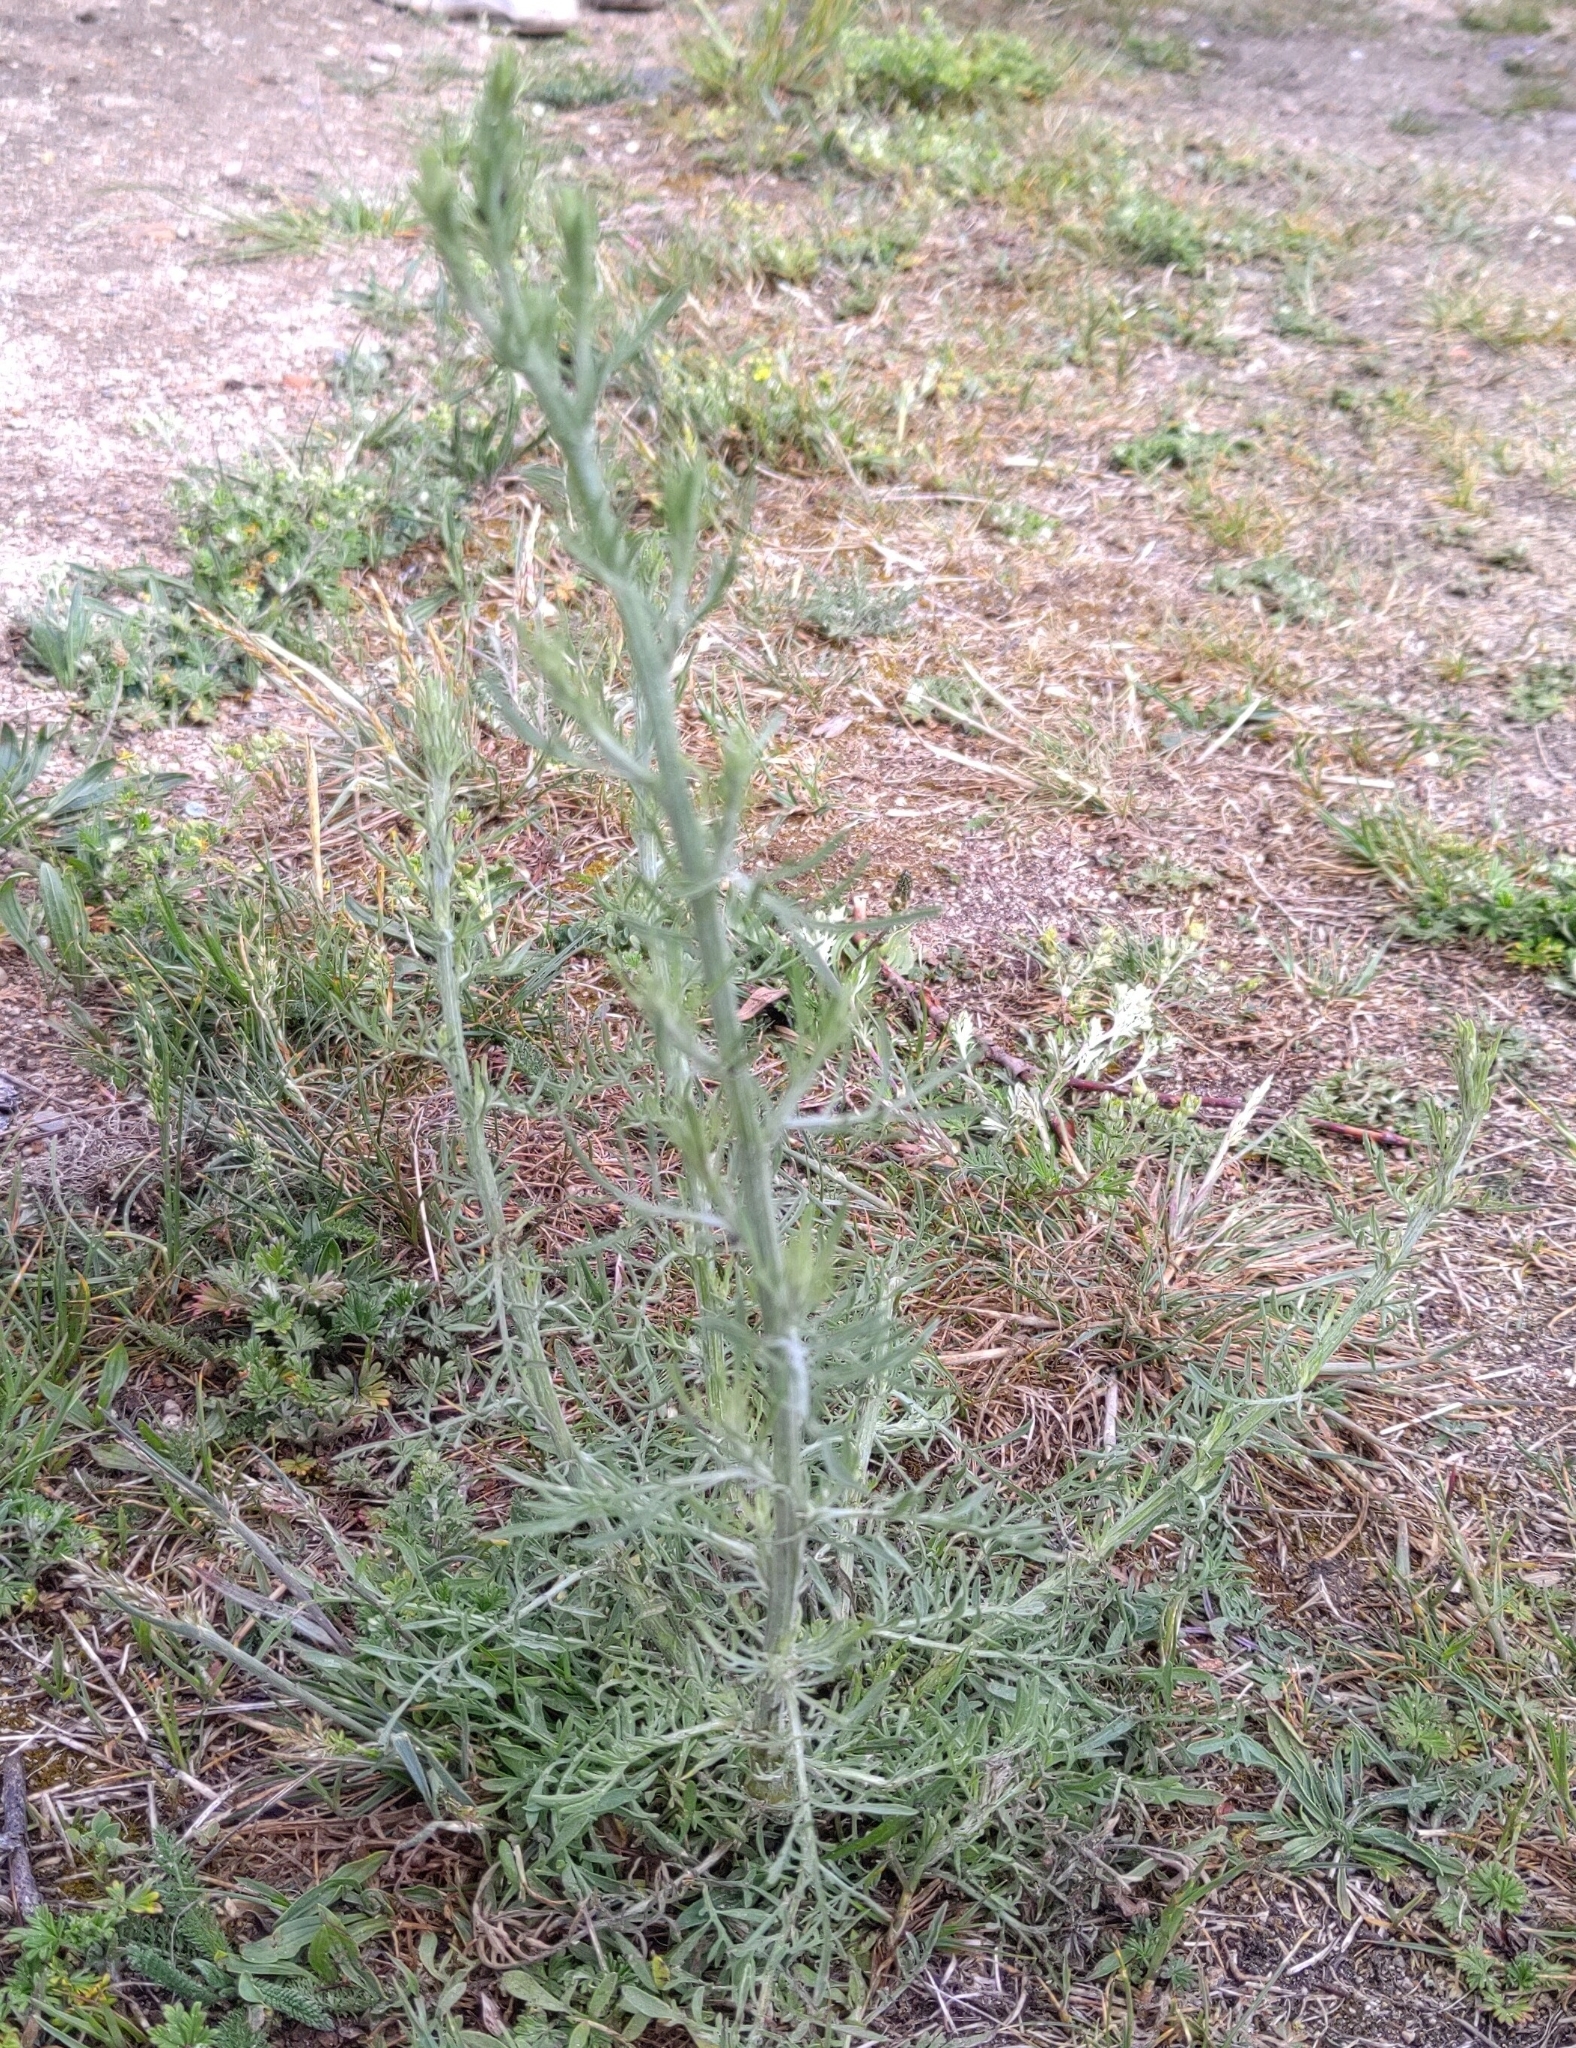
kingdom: Plantae
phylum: Tracheophyta
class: Magnoliopsida
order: Asterales
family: Asteraceae
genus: Centaurea
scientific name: Centaurea stoebe
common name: Spotted knapweed
